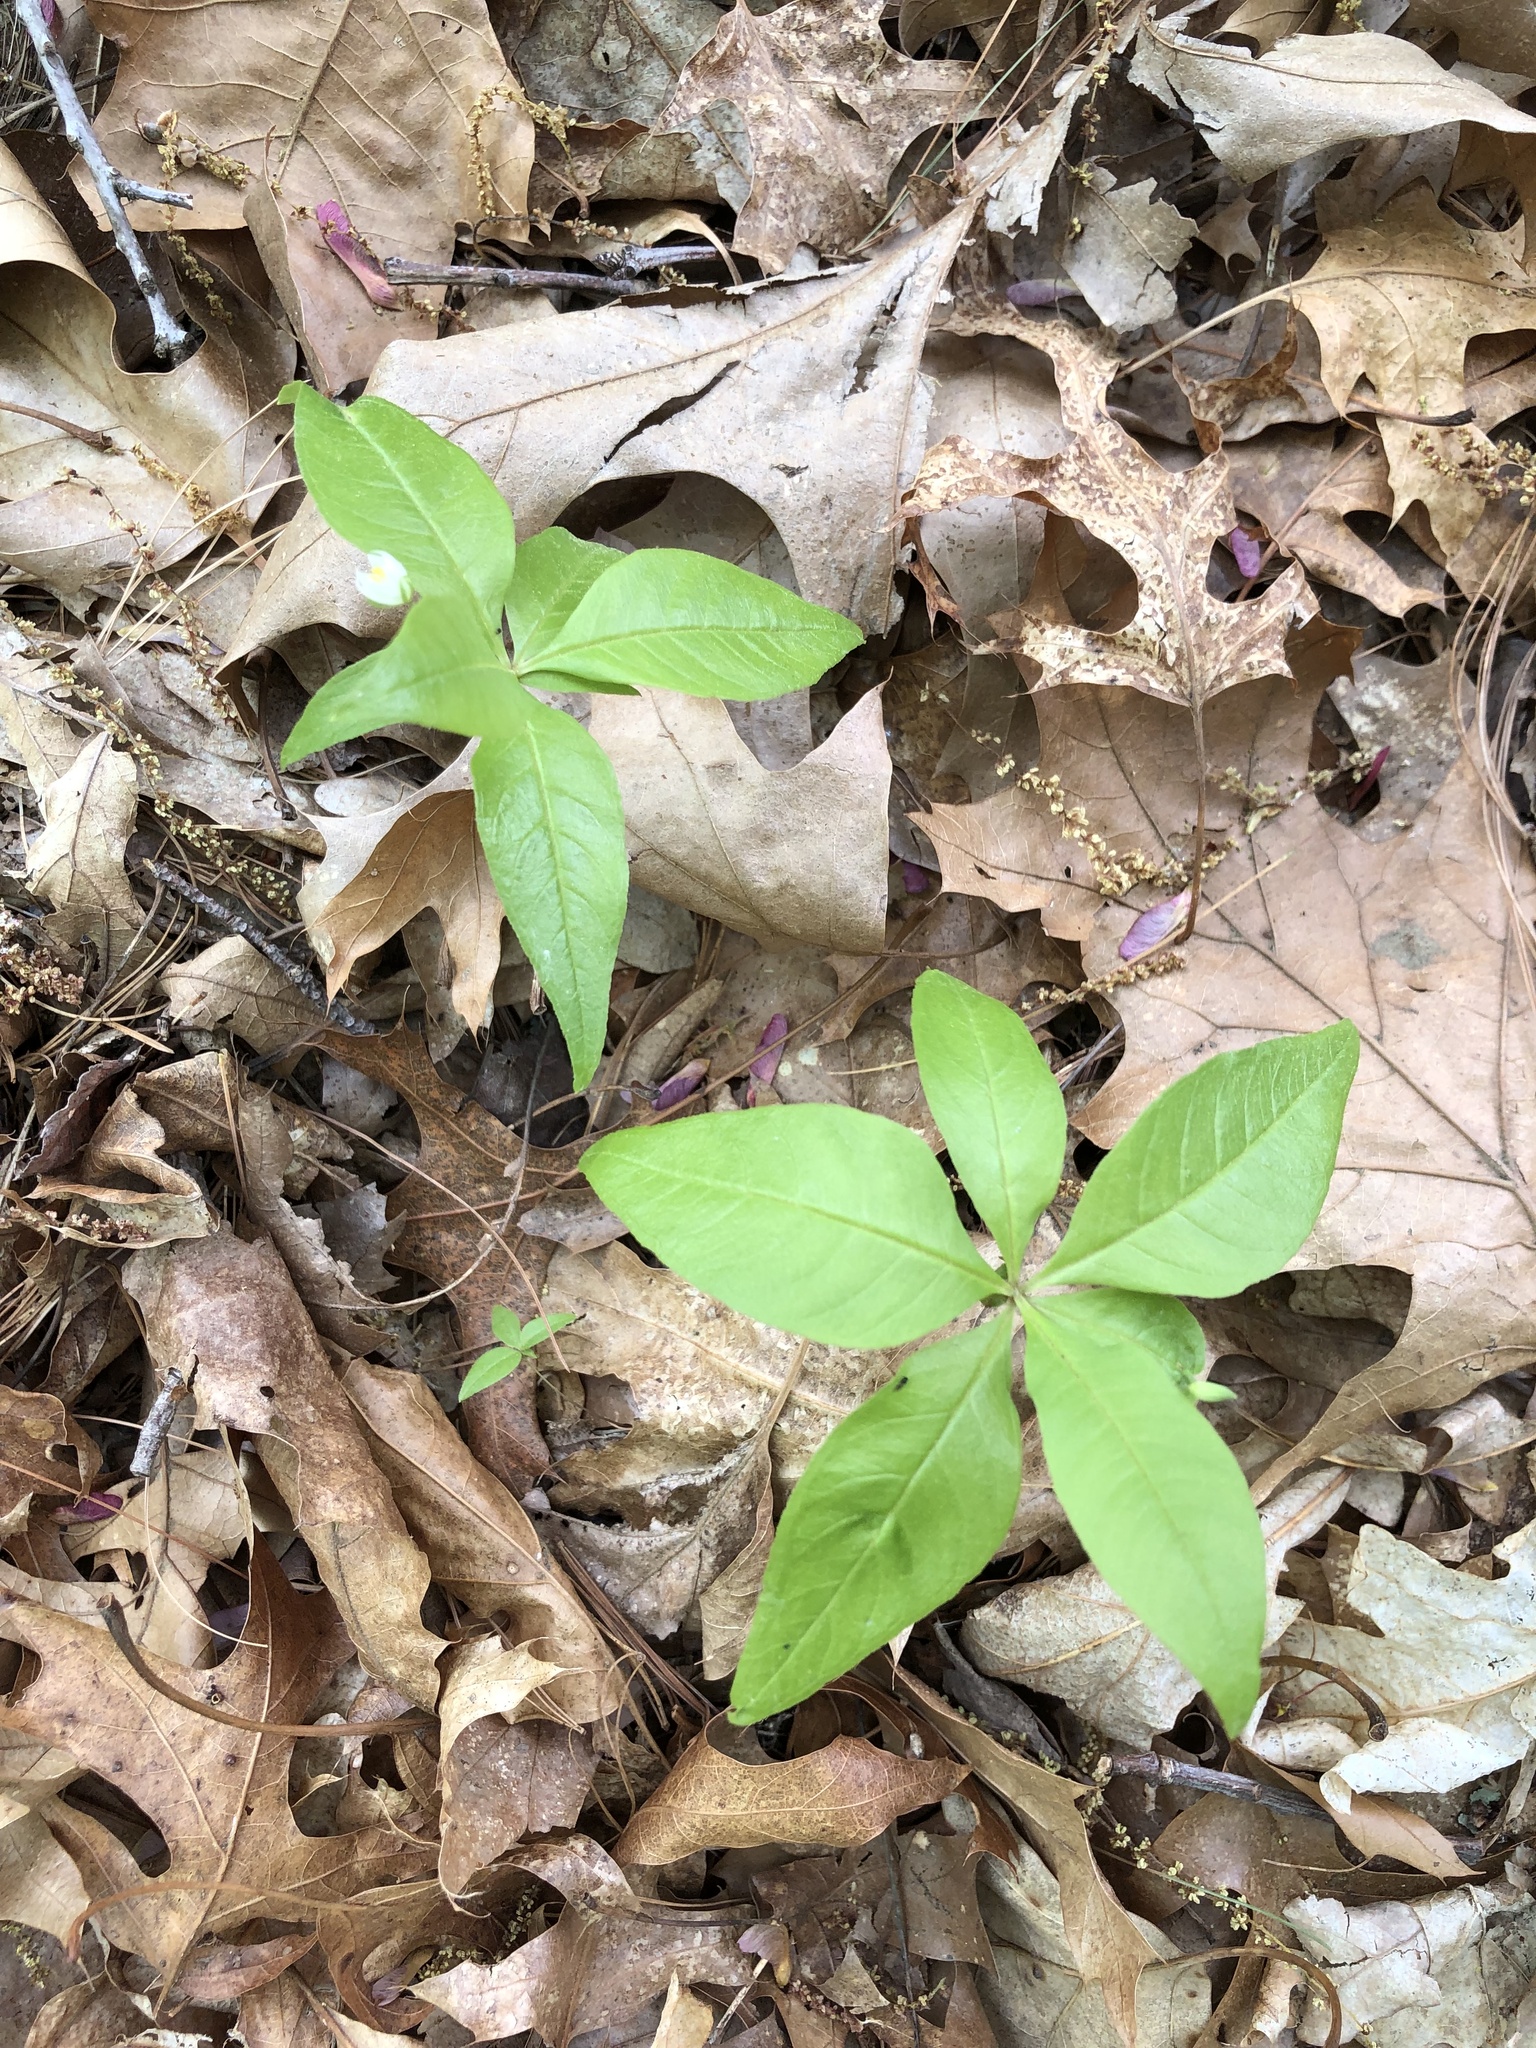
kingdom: Plantae
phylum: Tracheophyta
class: Magnoliopsida
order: Ericales
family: Primulaceae
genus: Lysimachia
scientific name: Lysimachia borealis
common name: American starflower
